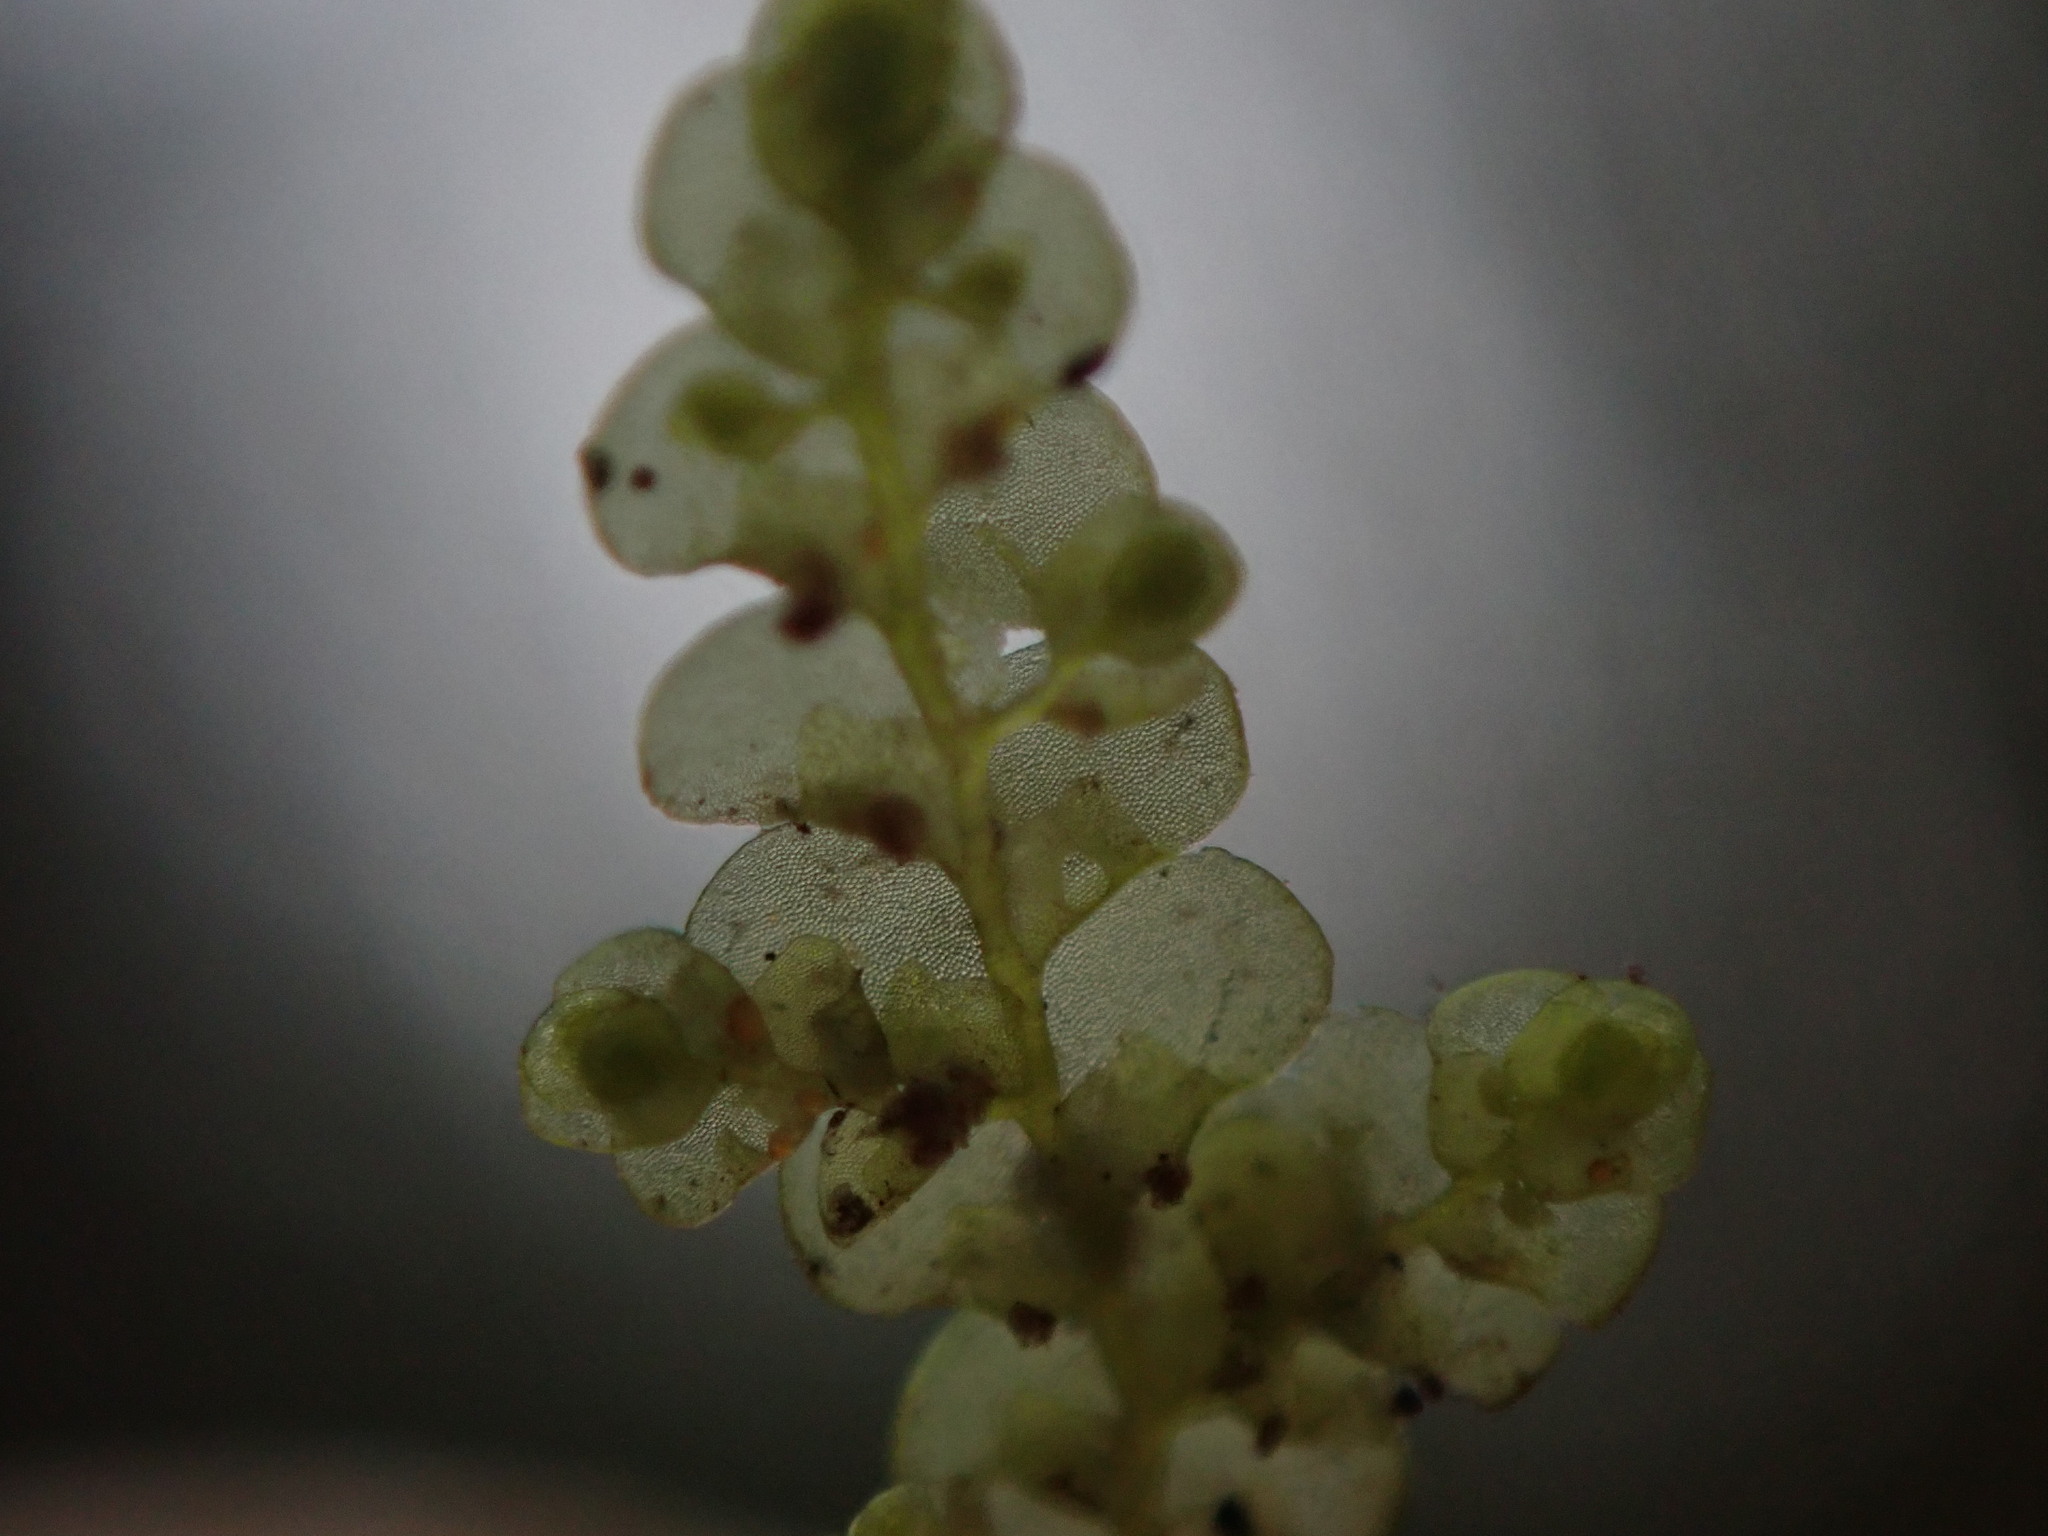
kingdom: Plantae
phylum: Marchantiophyta
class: Jungermanniopsida
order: Porellales
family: Radulaceae
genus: Radula
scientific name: Radula complanata
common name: Flat-leaved scalewort
